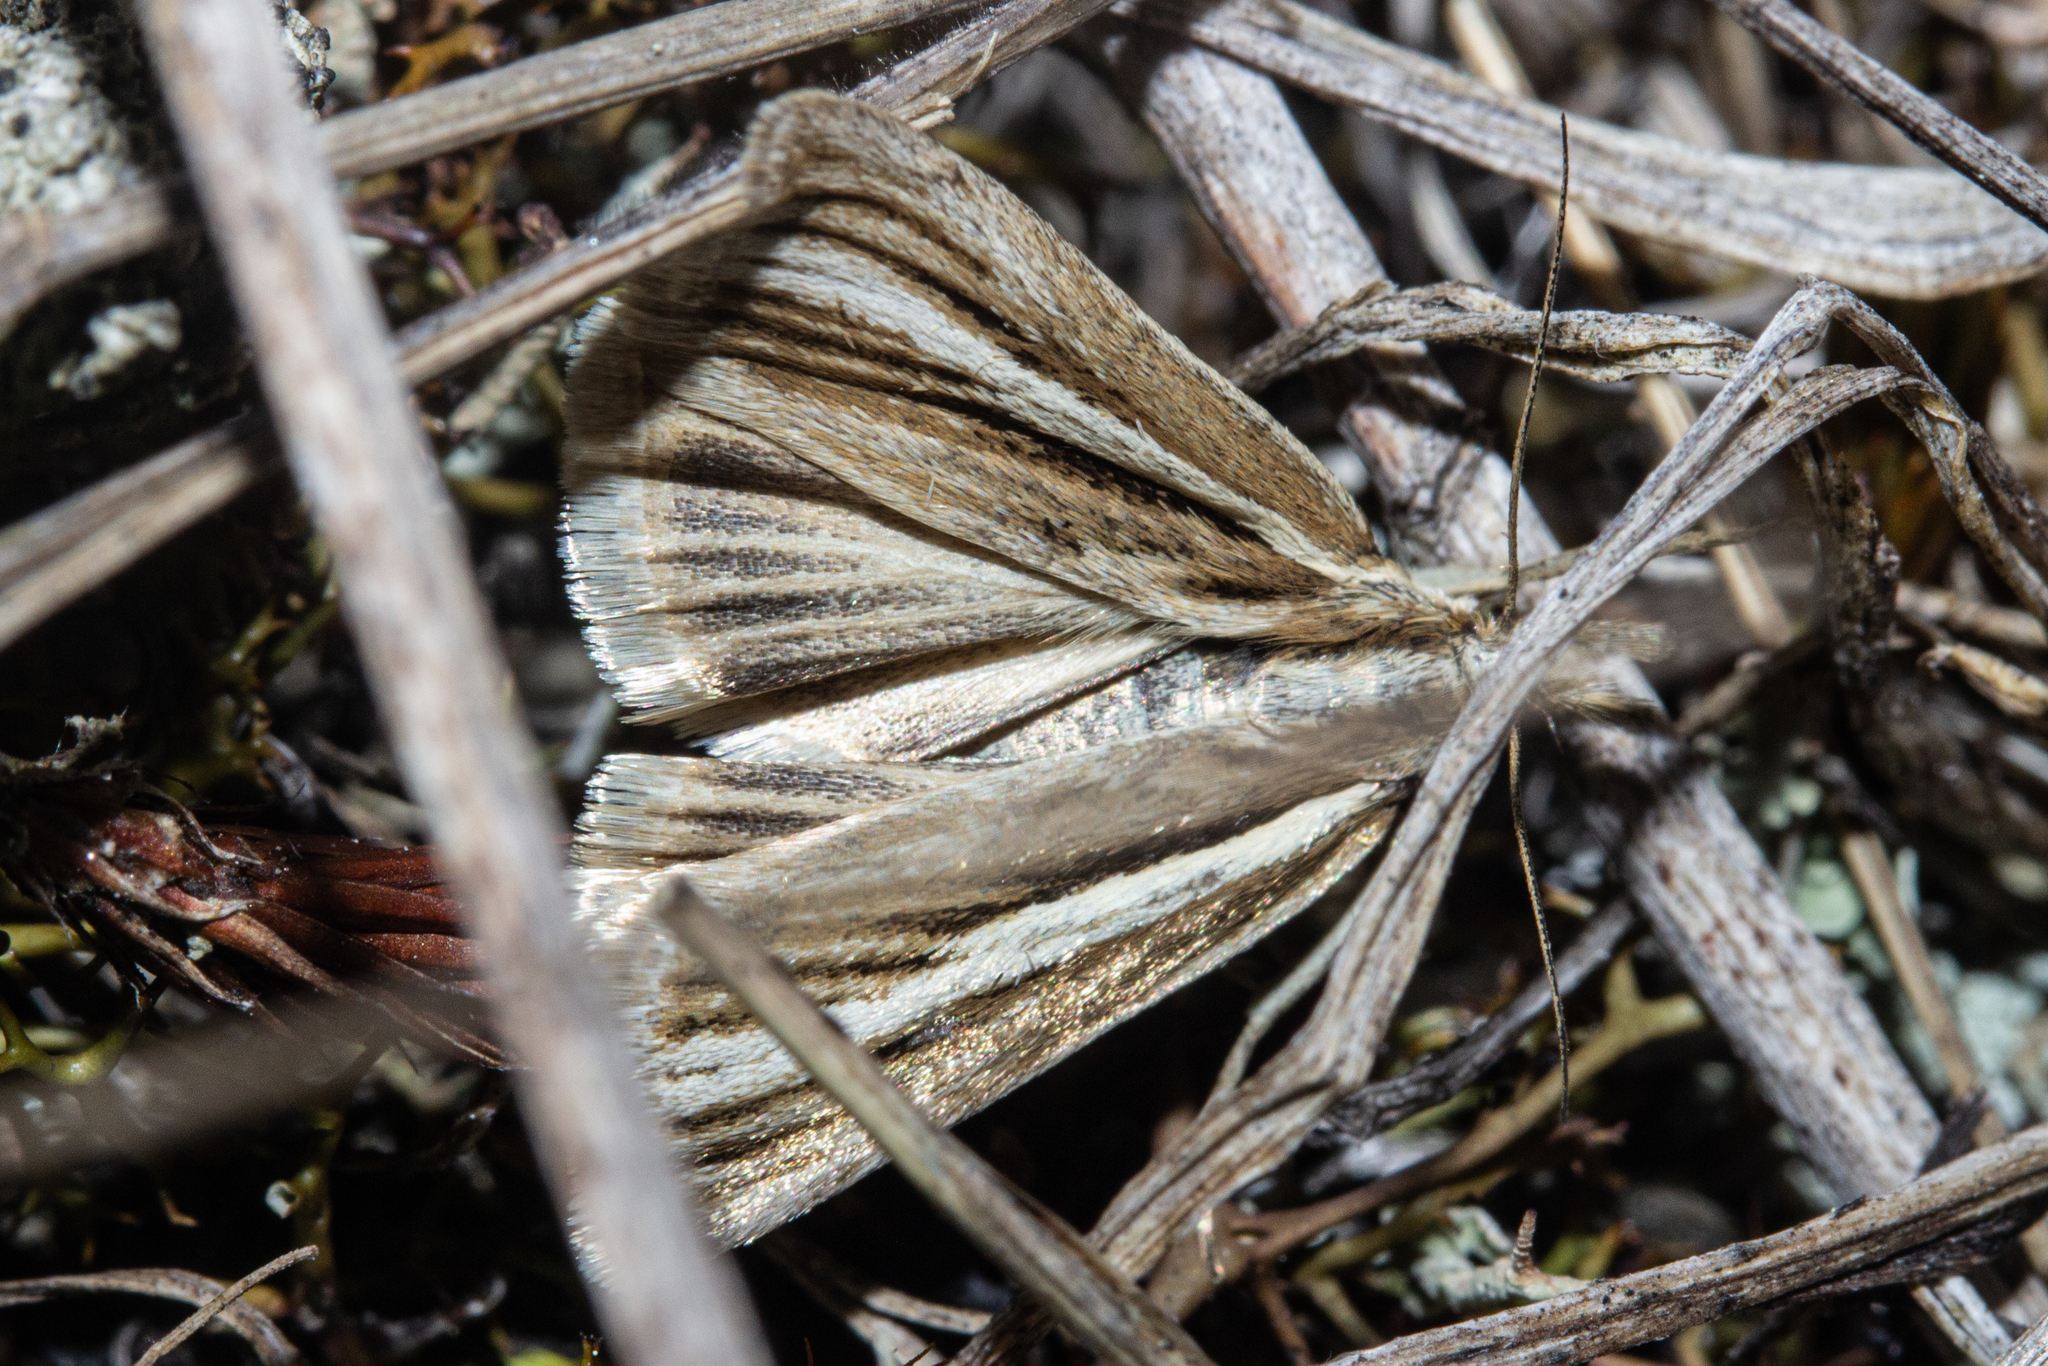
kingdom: Animalia
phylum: Arthropoda
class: Insecta
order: Lepidoptera
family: Crambidae
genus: Orocrambus
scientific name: Orocrambus tritonellus
